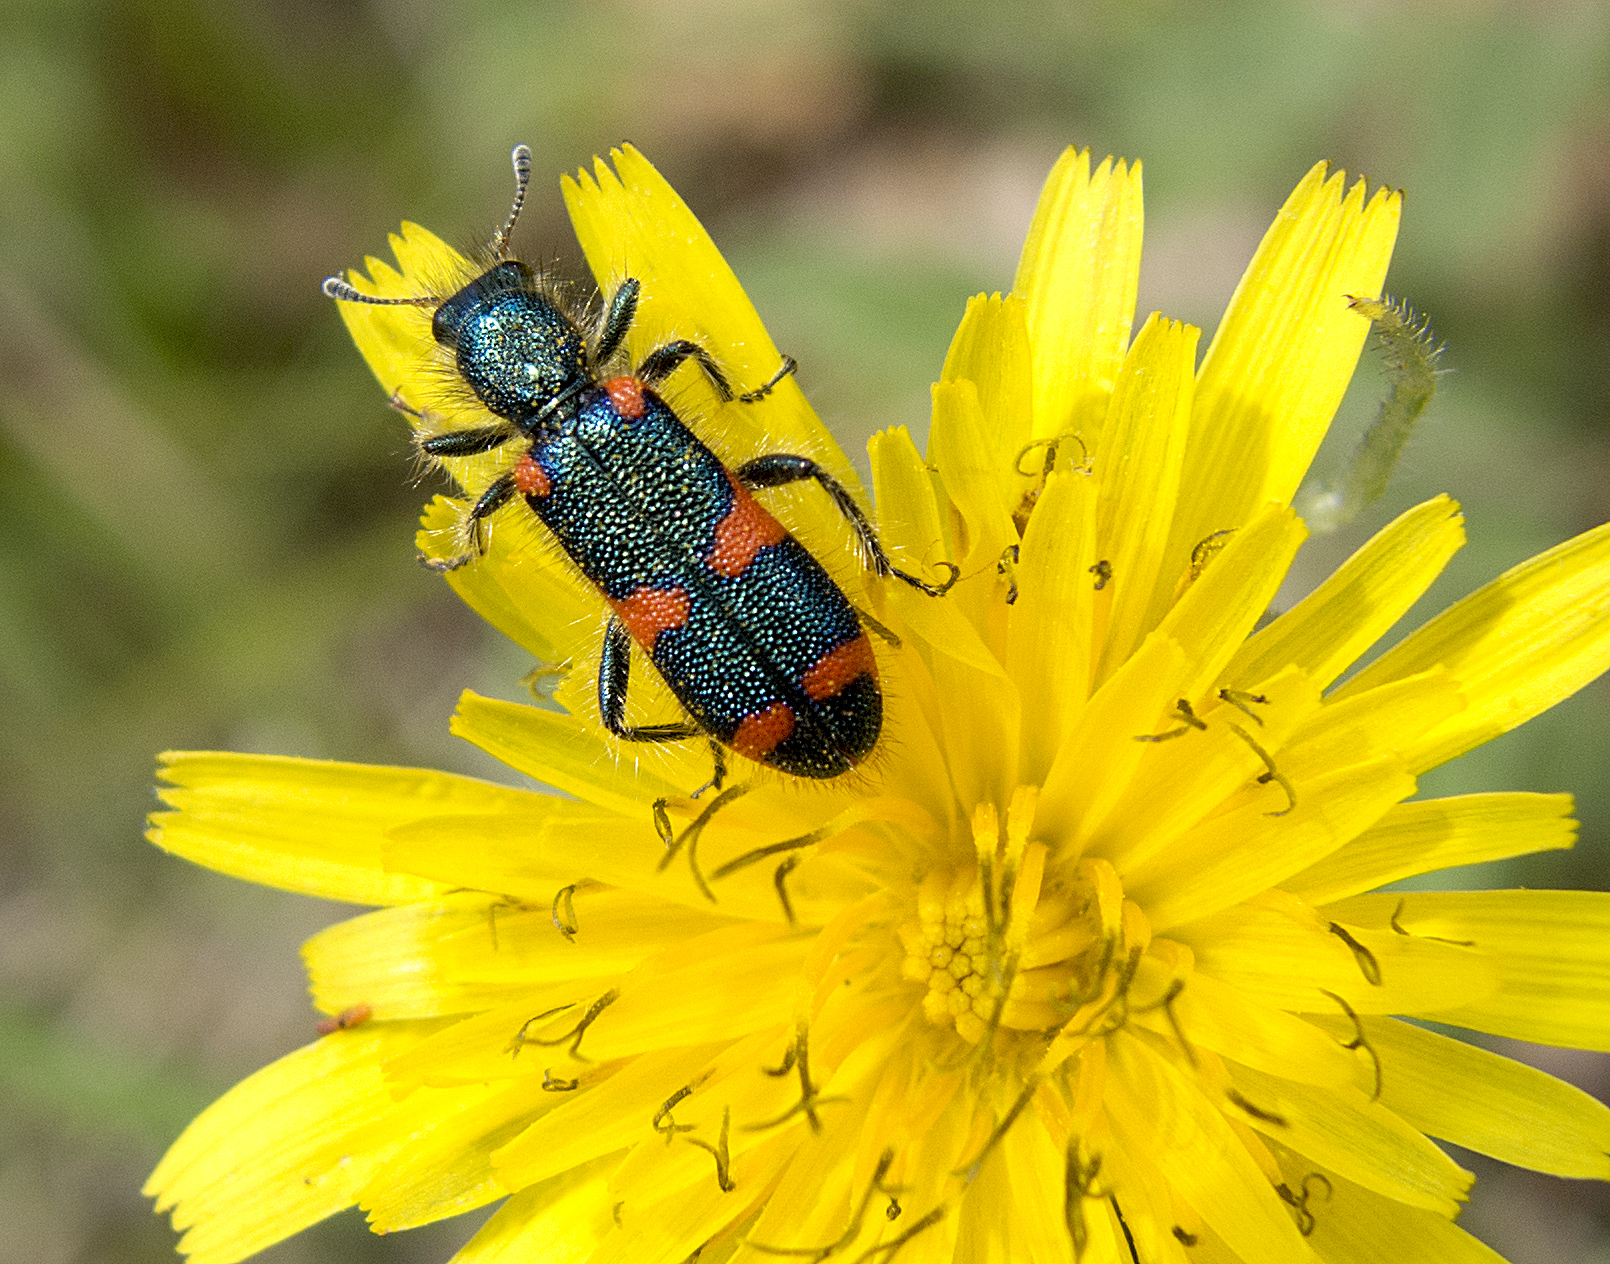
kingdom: Animalia
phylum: Arthropoda
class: Insecta
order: Coleoptera
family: Cleridae
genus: Trichodes
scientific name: Trichodes punctatus
